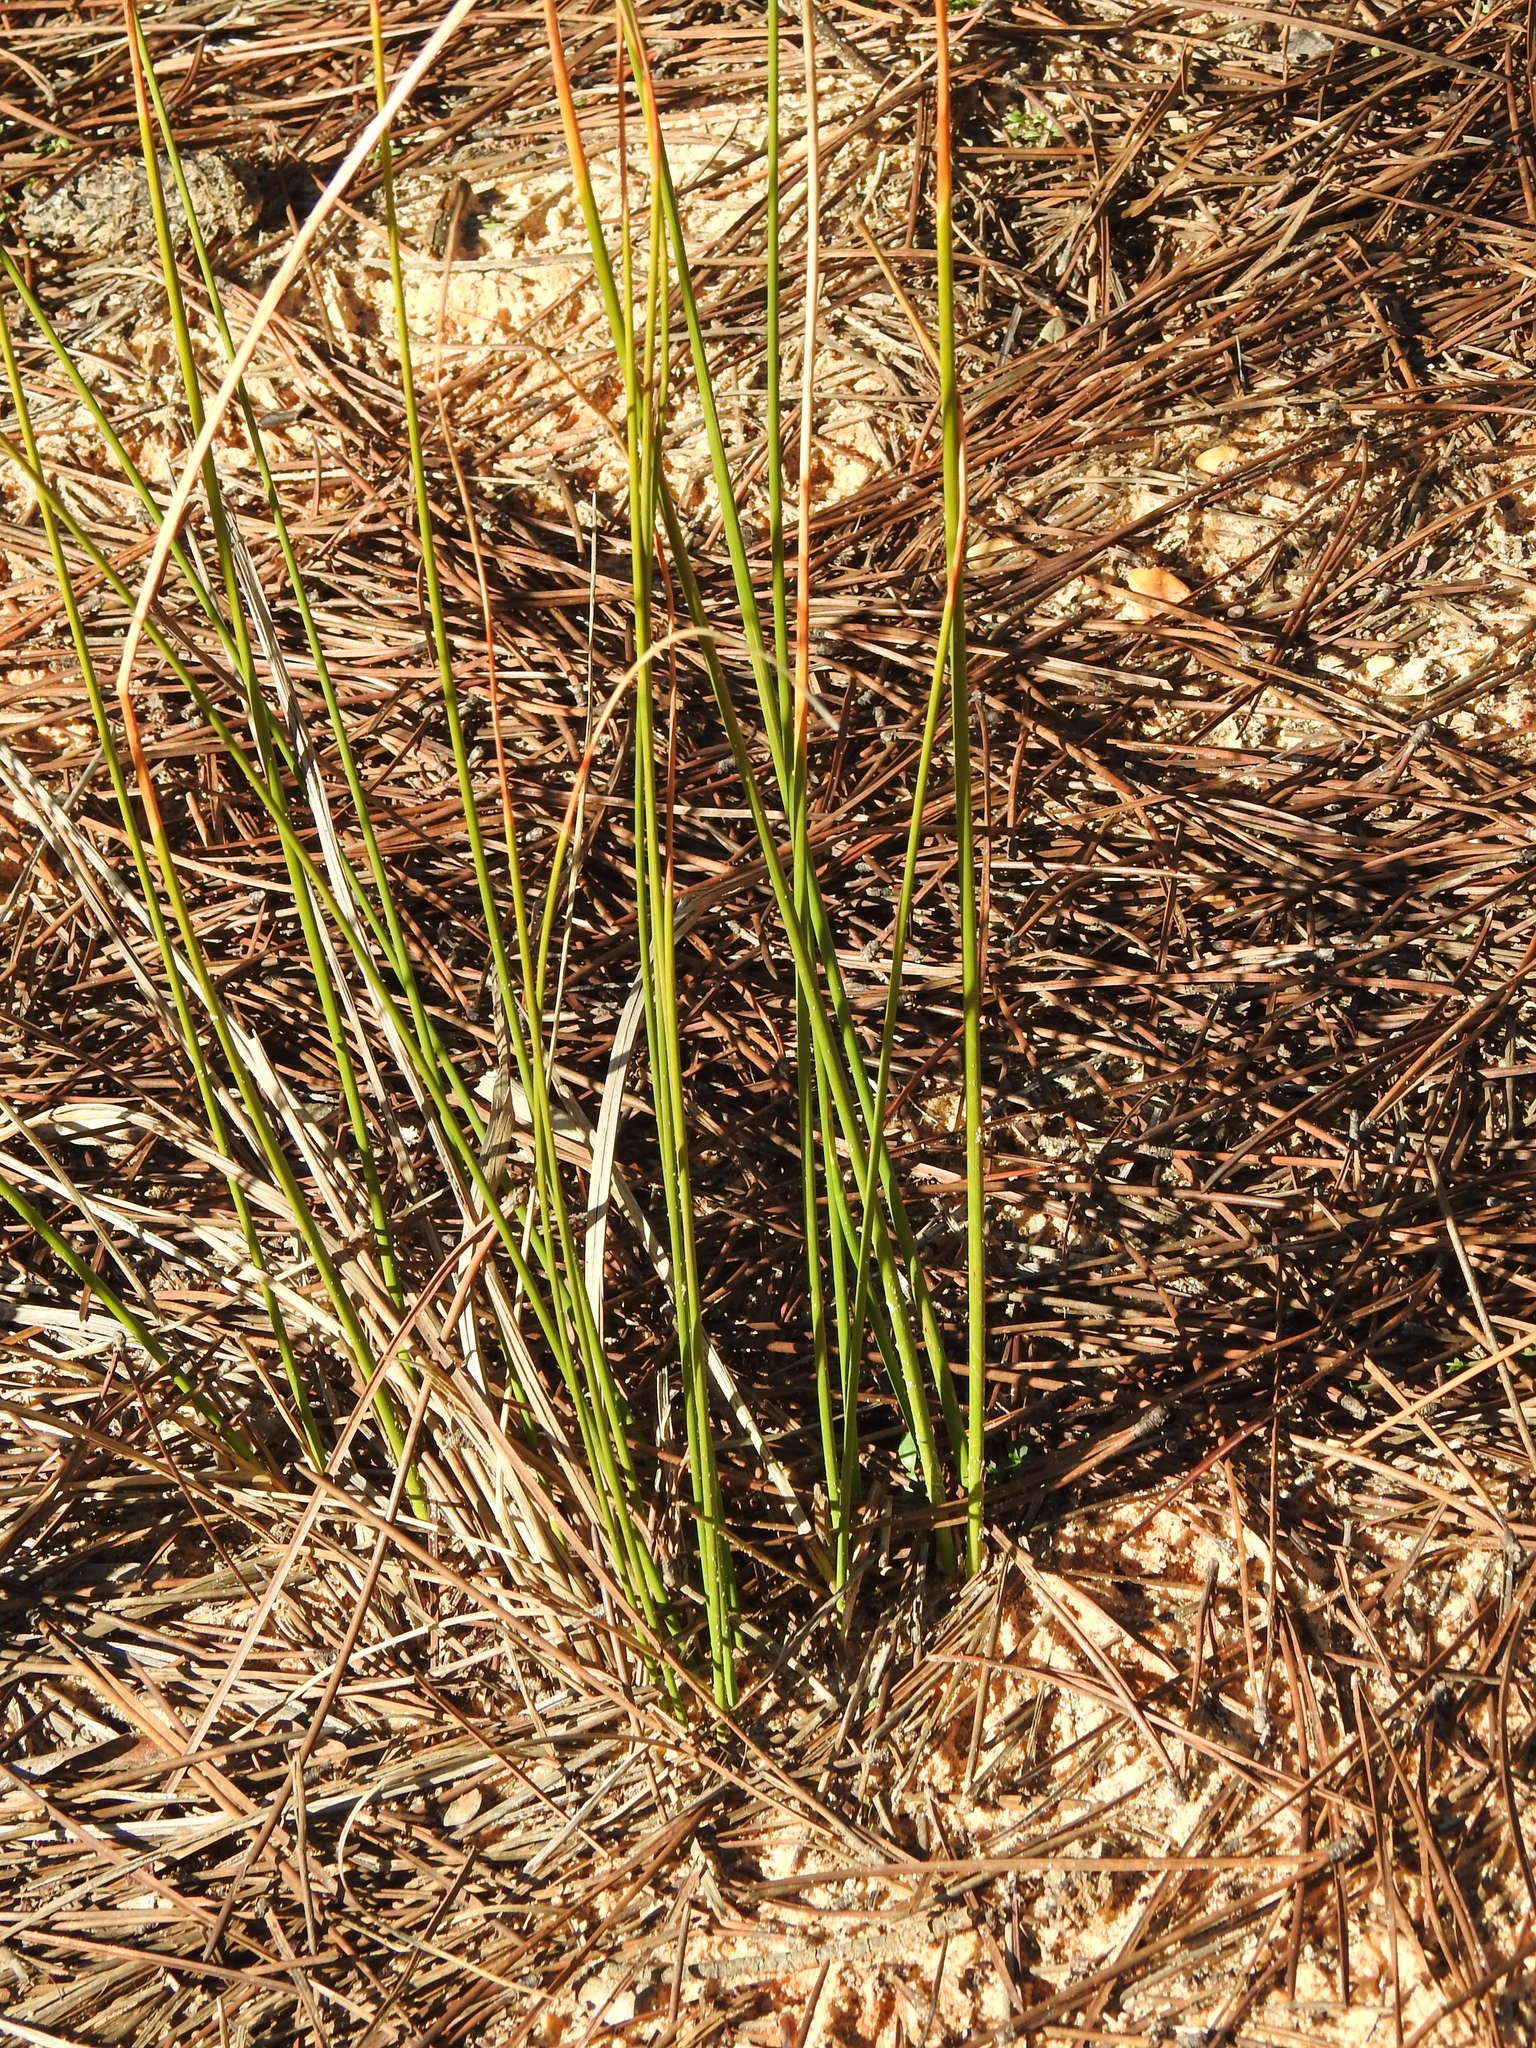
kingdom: Plantae
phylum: Tracheophyta
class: Liliopsida
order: Poales
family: Cyperaceae
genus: Scirpoides
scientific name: Scirpoides holoschoenus
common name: Round-headed club-rush
